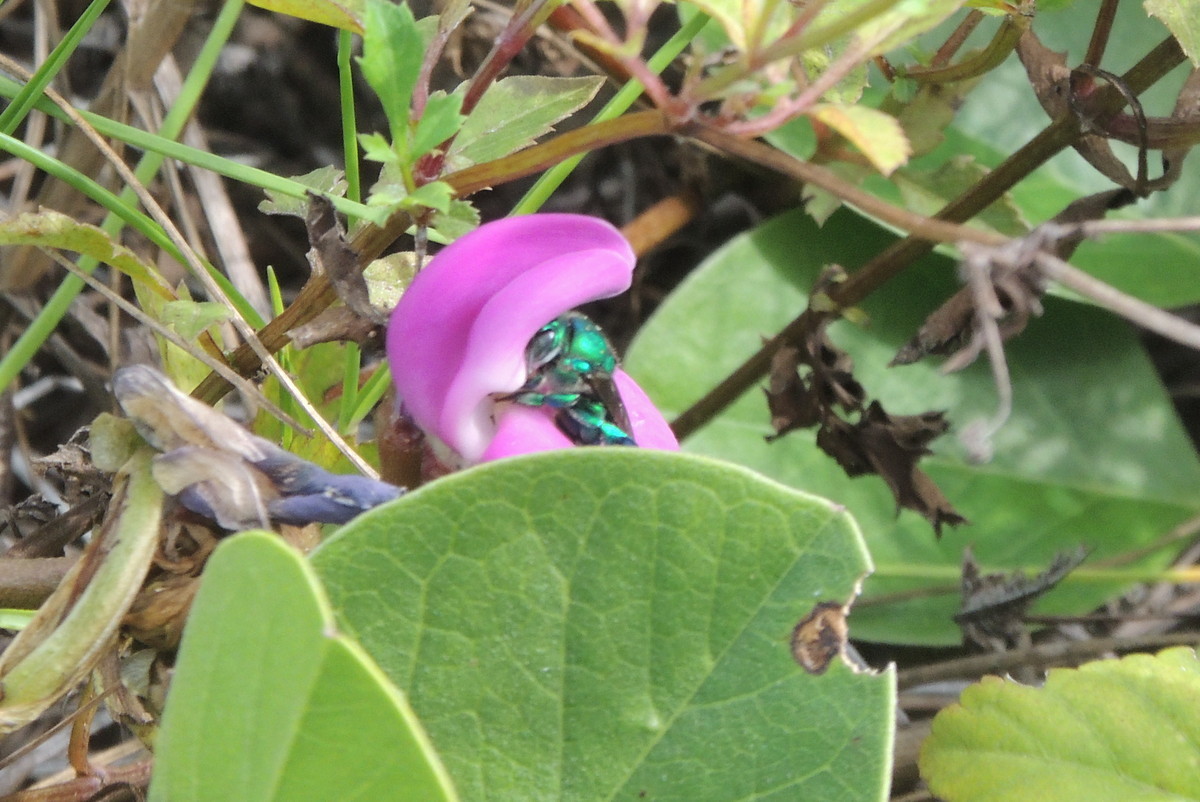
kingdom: Animalia
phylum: Arthropoda
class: Insecta
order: Hymenoptera
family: Apidae
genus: Euglossa
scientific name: Euglossa dilemma
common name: Green orchid bee
